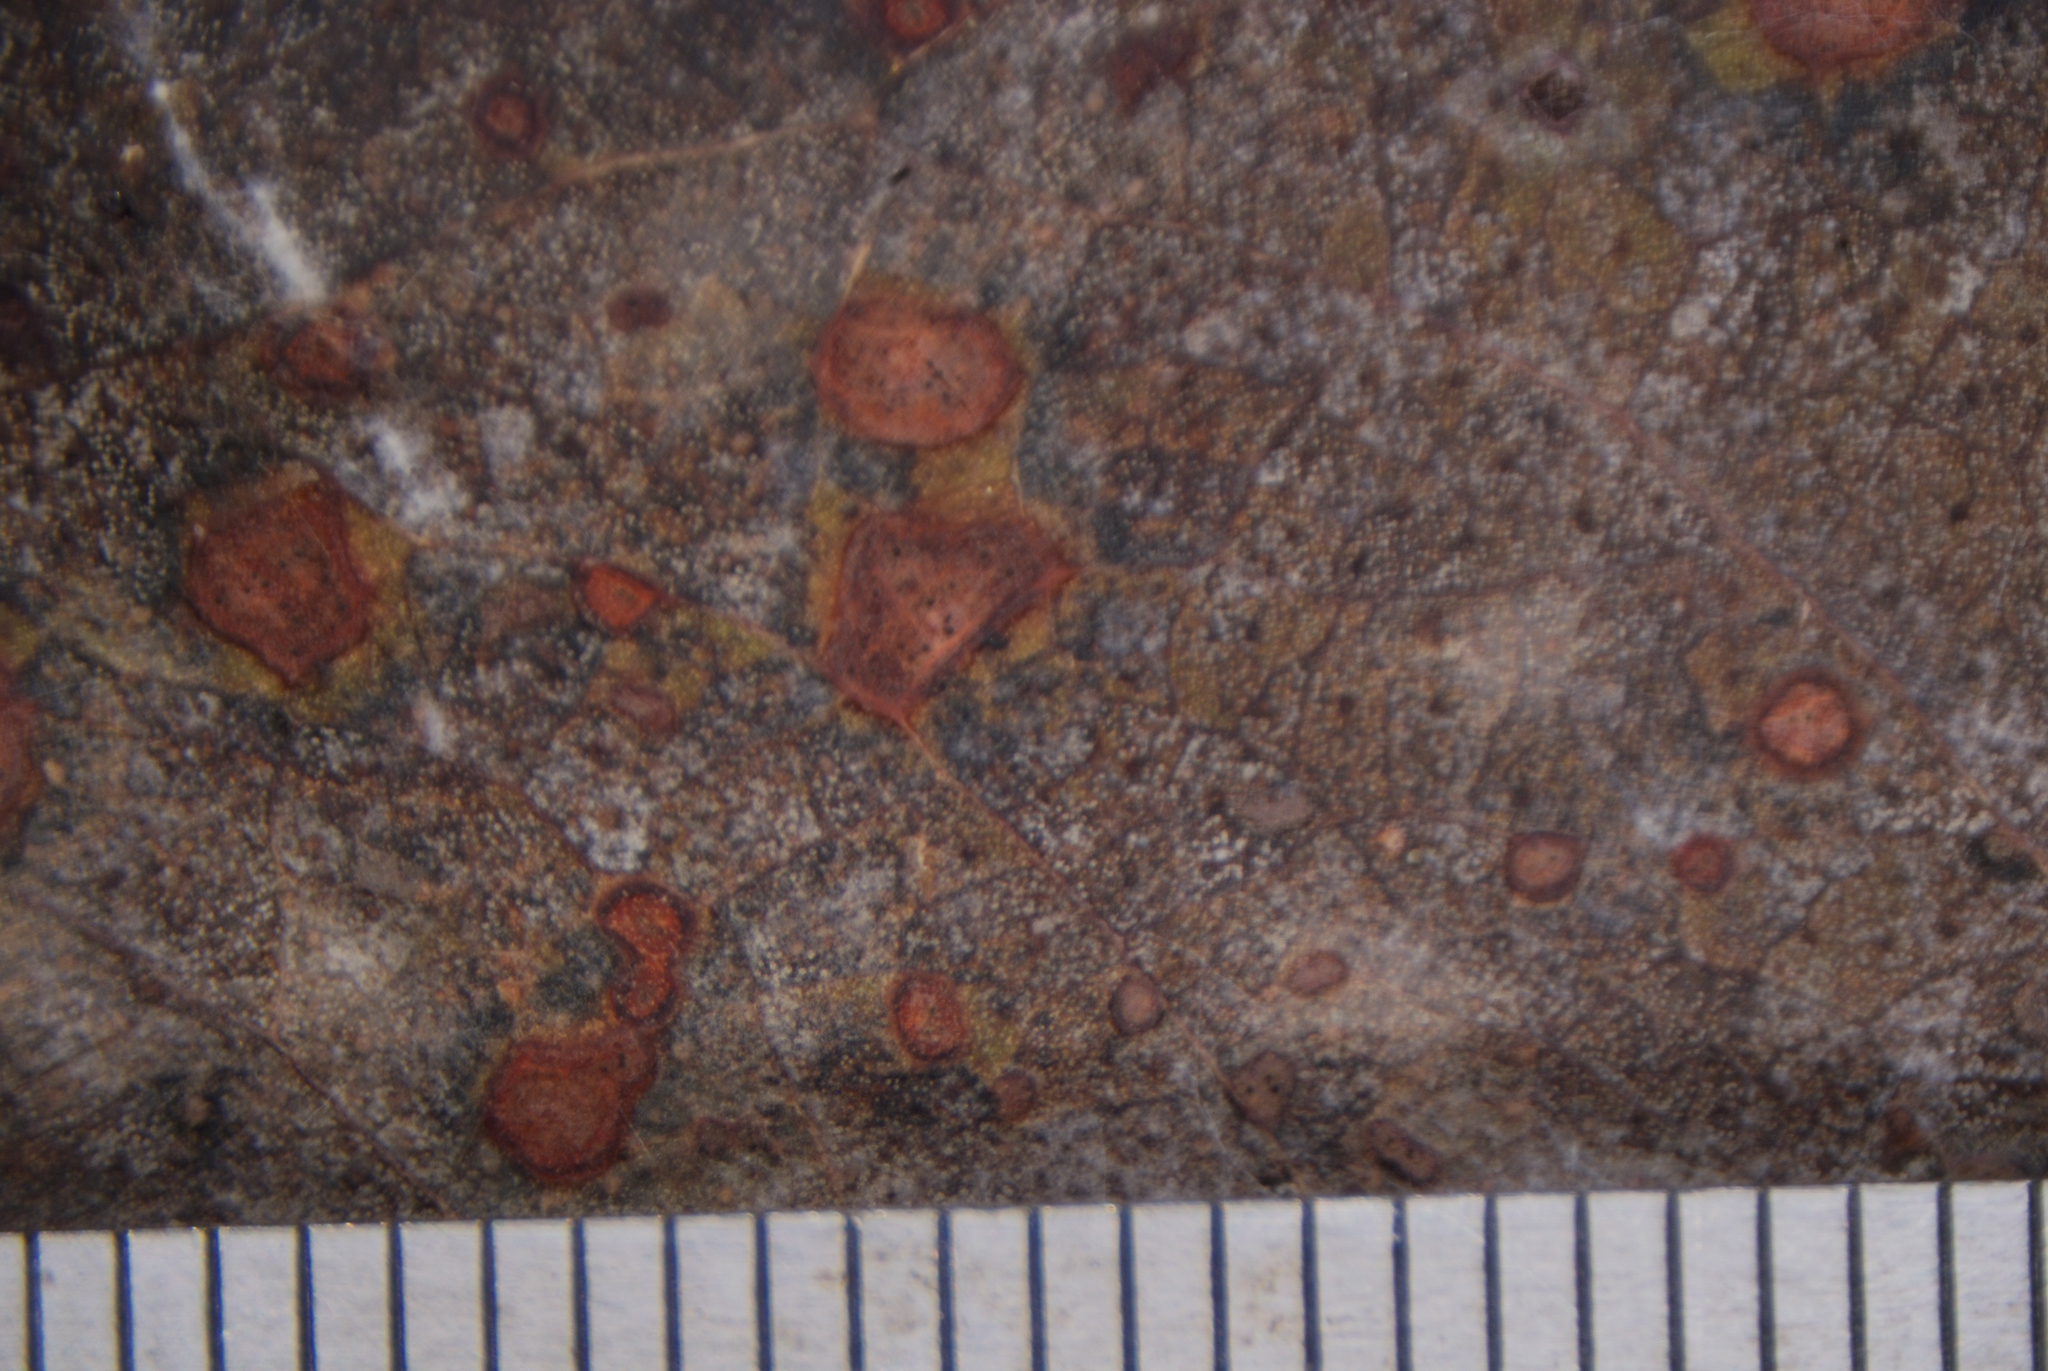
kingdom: Fungi
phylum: Ascomycota
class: Dothideomycetes
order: Mycosphaerellales
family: Teratosphaeriaceae
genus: Teratosphaeria
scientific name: Teratosphaeria considenianae
